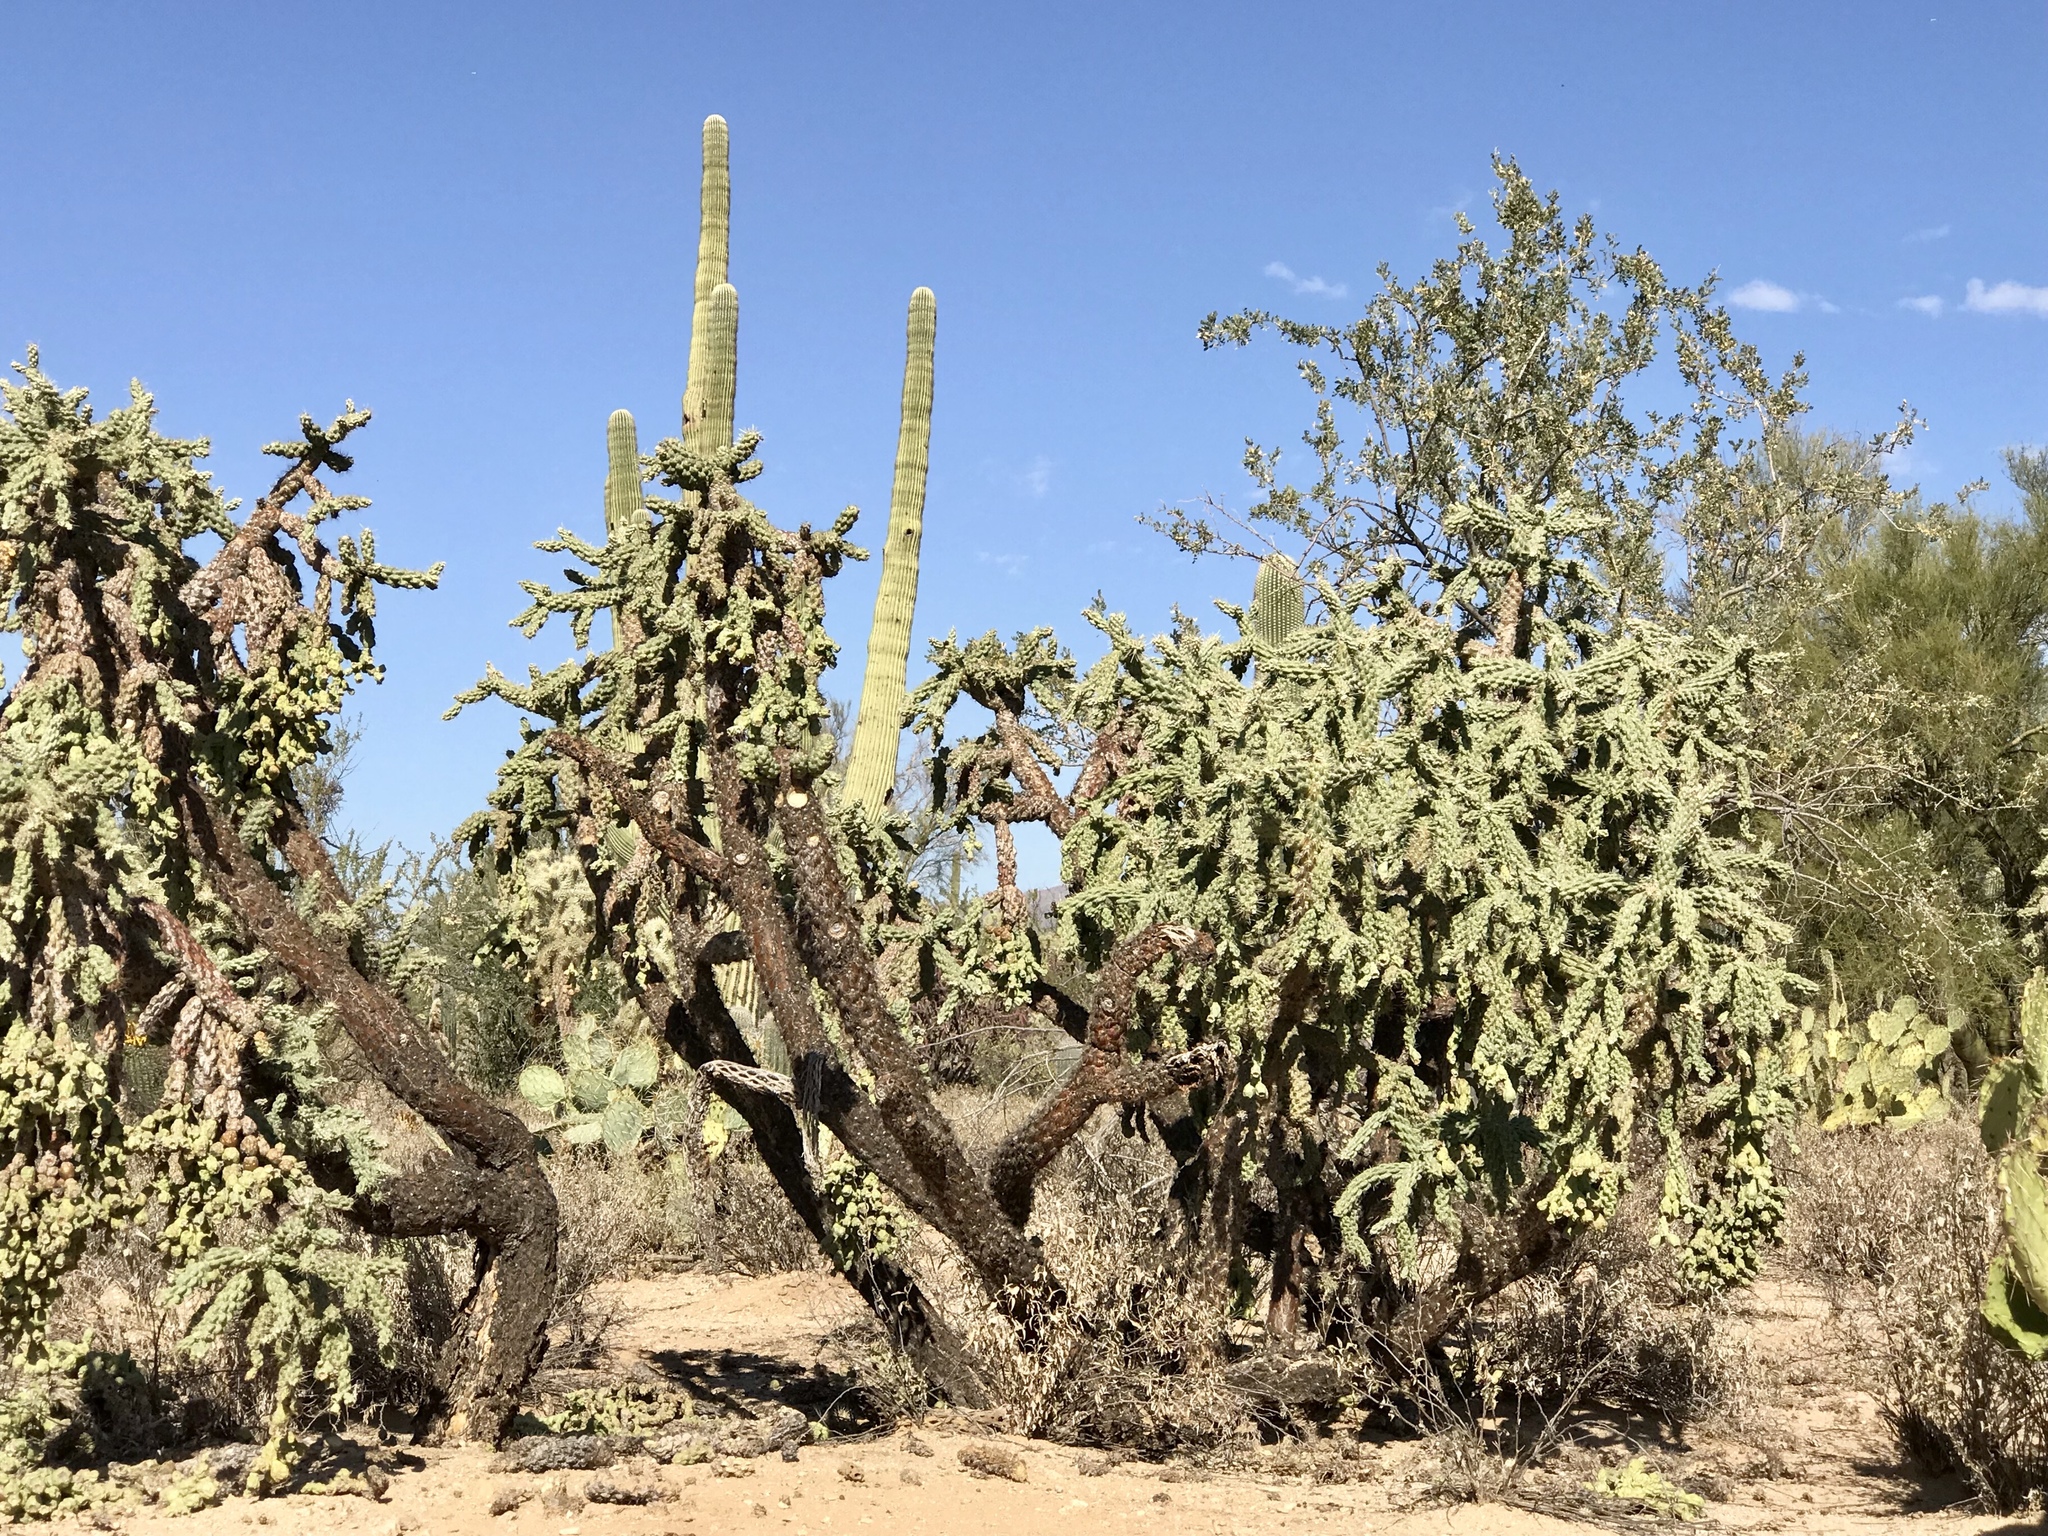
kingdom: Plantae
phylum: Tracheophyta
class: Magnoliopsida
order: Caryophyllales
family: Cactaceae
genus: Cylindropuntia
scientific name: Cylindropuntia fulgida
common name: Jumping cholla
